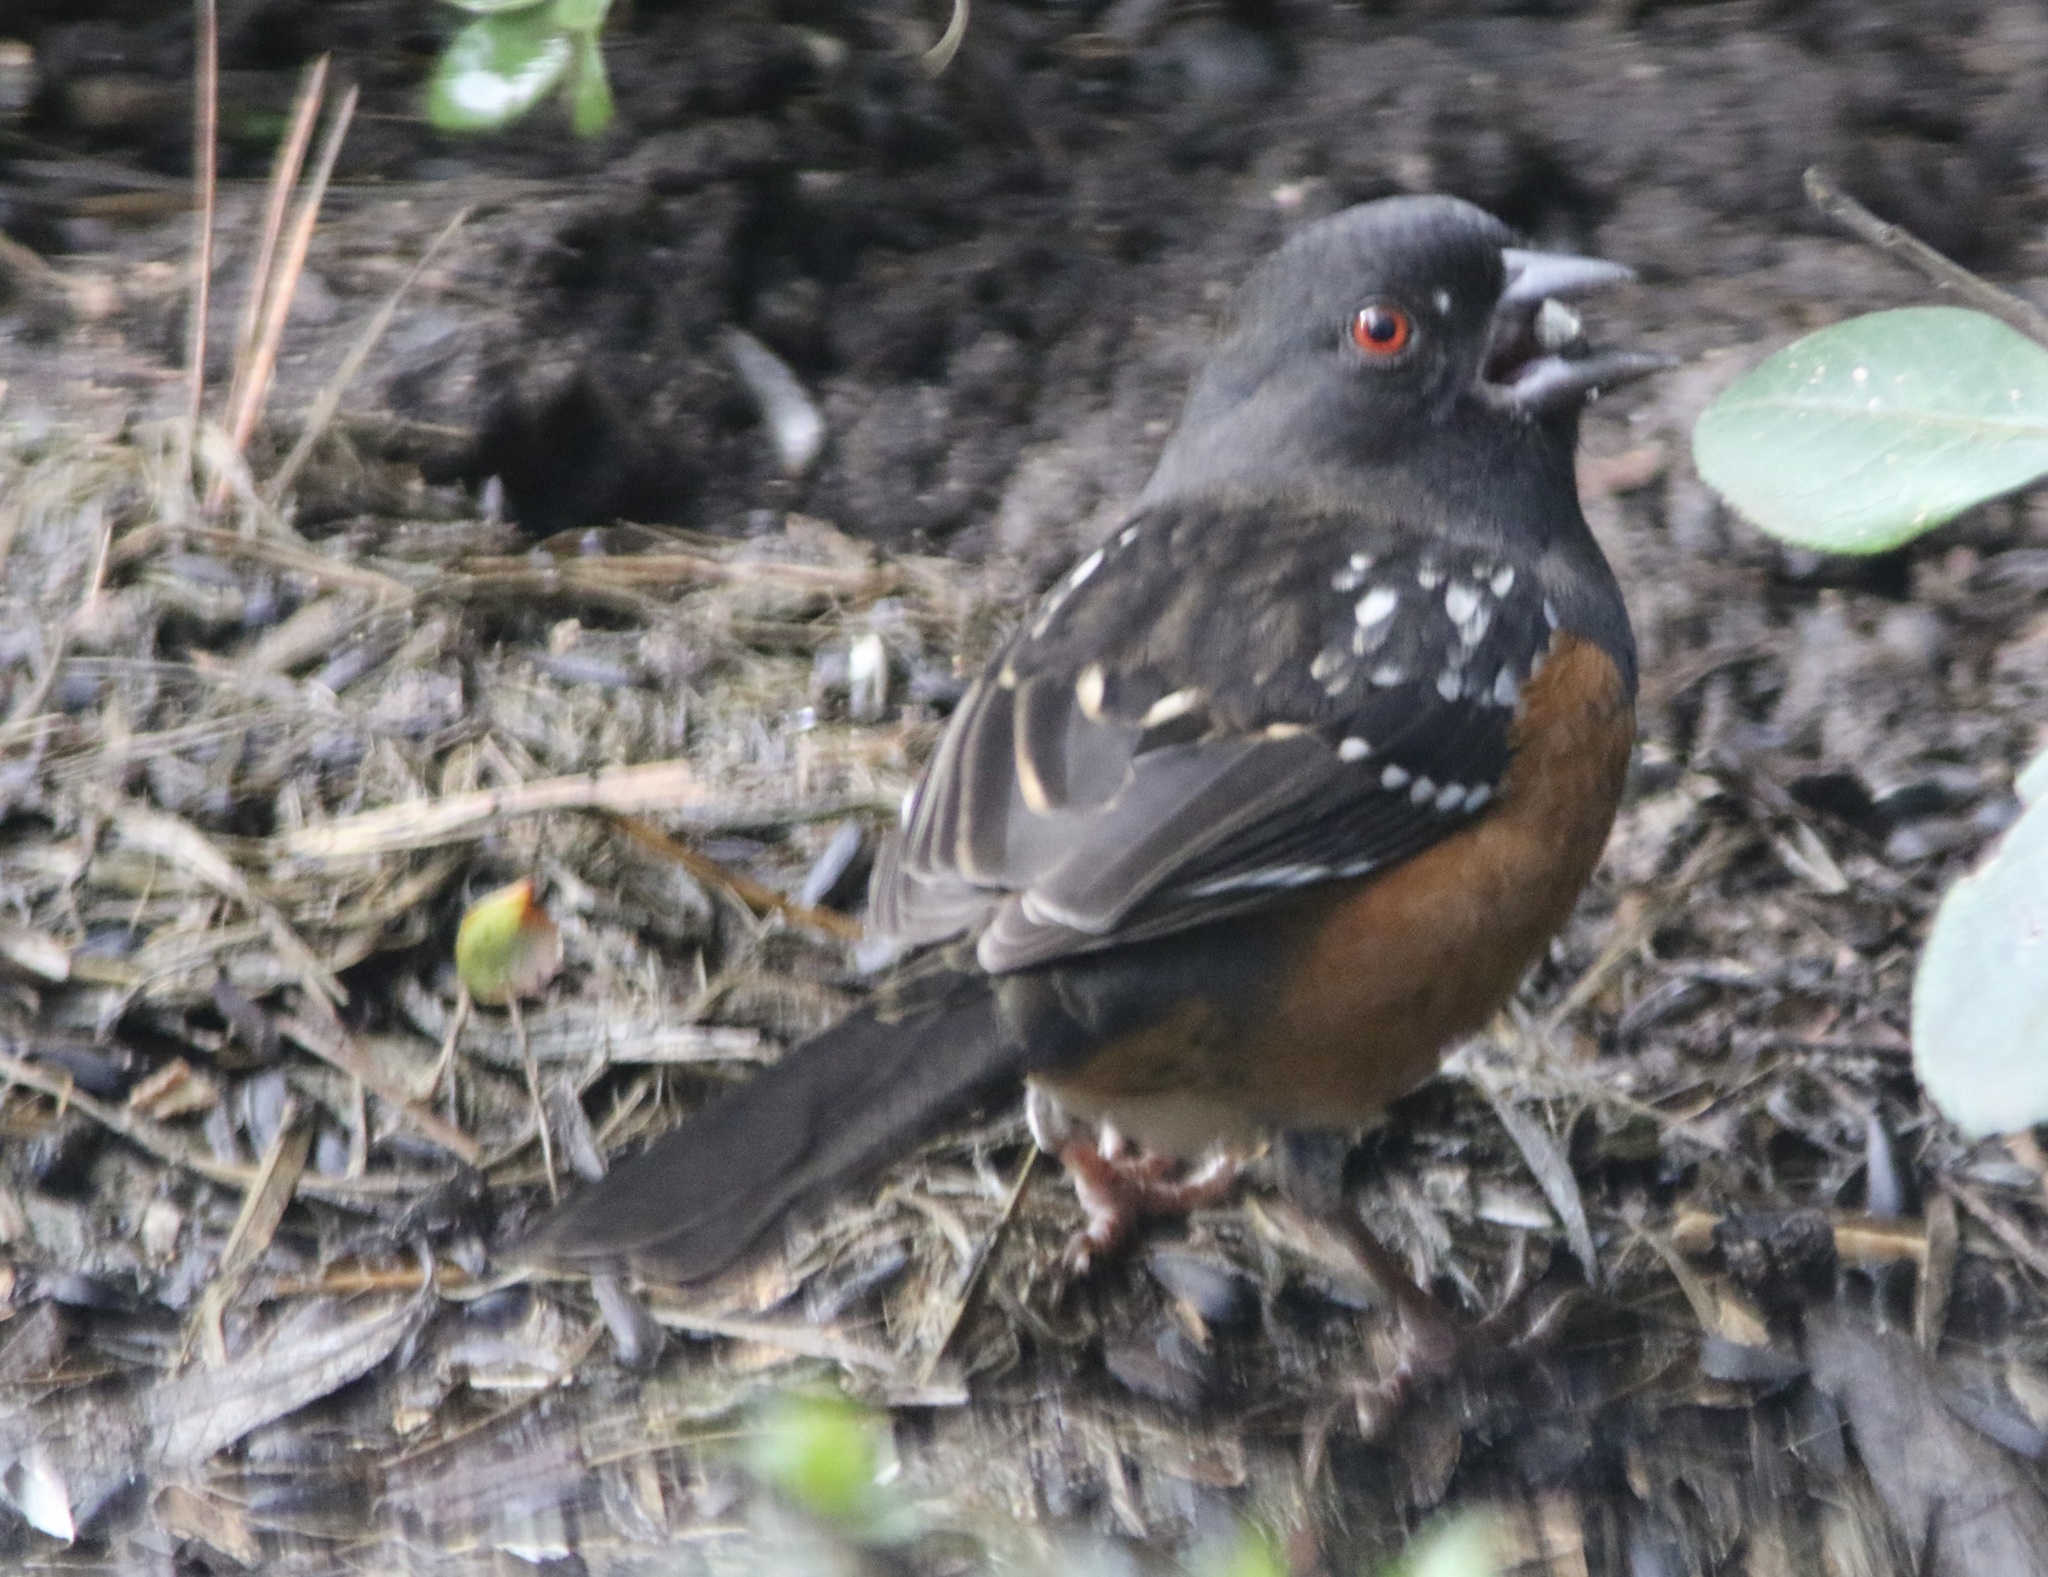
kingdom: Animalia
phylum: Chordata
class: Aves
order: Passeriformes
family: Passerellidae
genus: Pipilo
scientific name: Pipilo maculatus
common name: Spotted towhee
